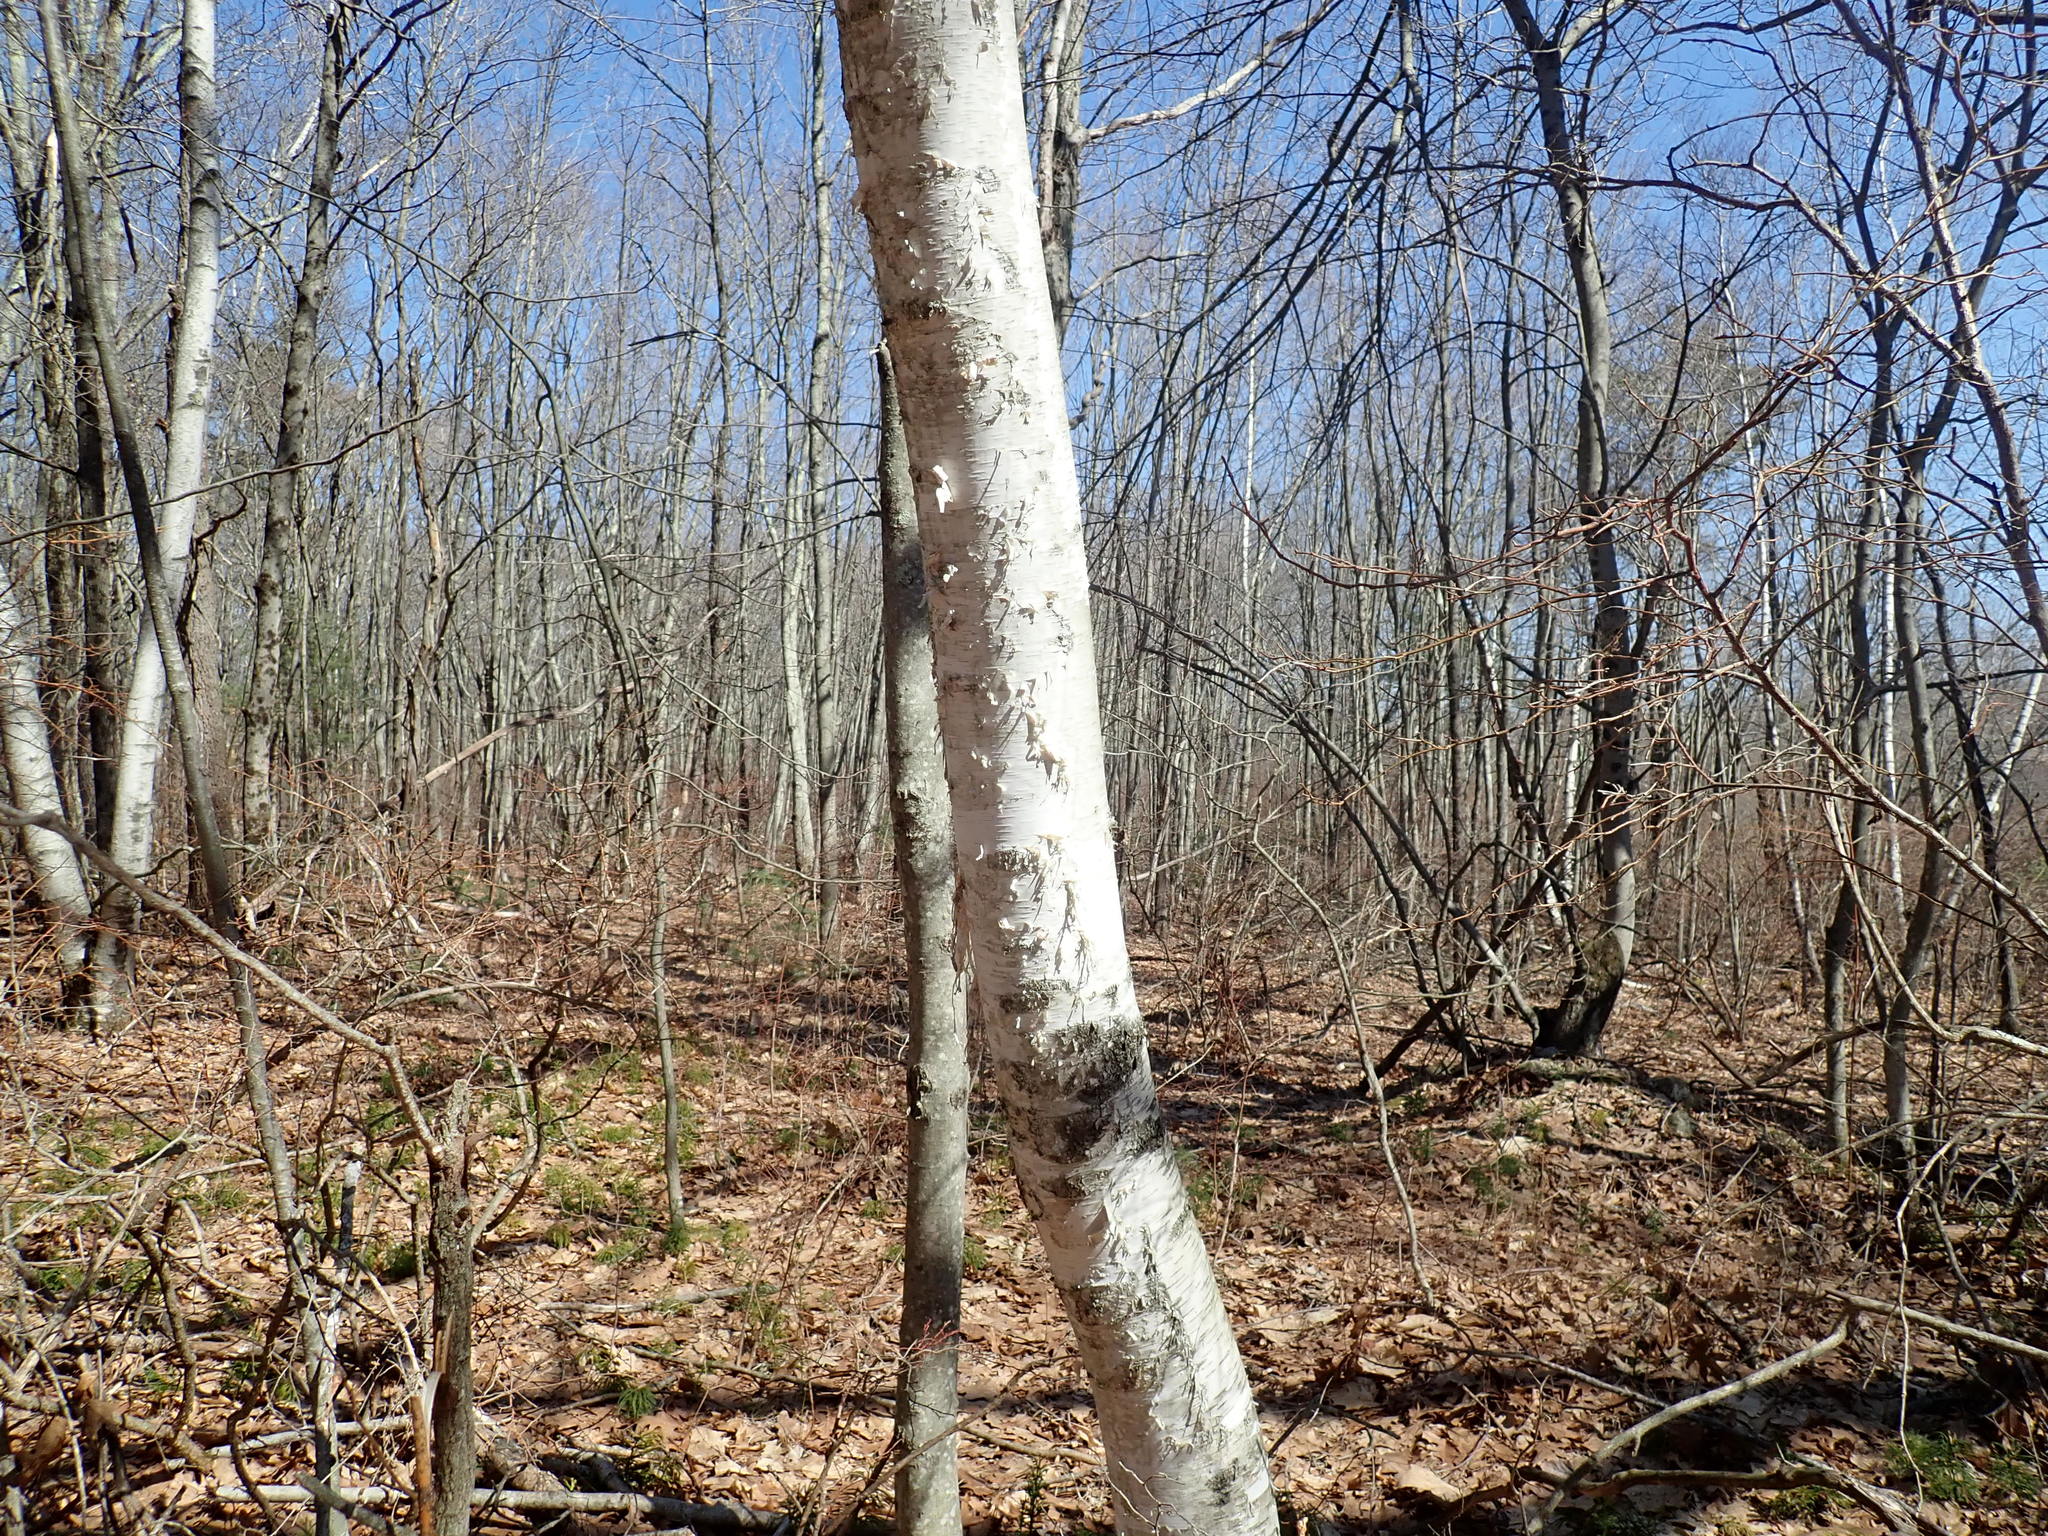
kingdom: Plantae
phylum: Tracheophyta
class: Magnoliopsida
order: Fagales
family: Betulaceae
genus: Betula
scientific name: Betula papyrifera
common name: Paper birch
